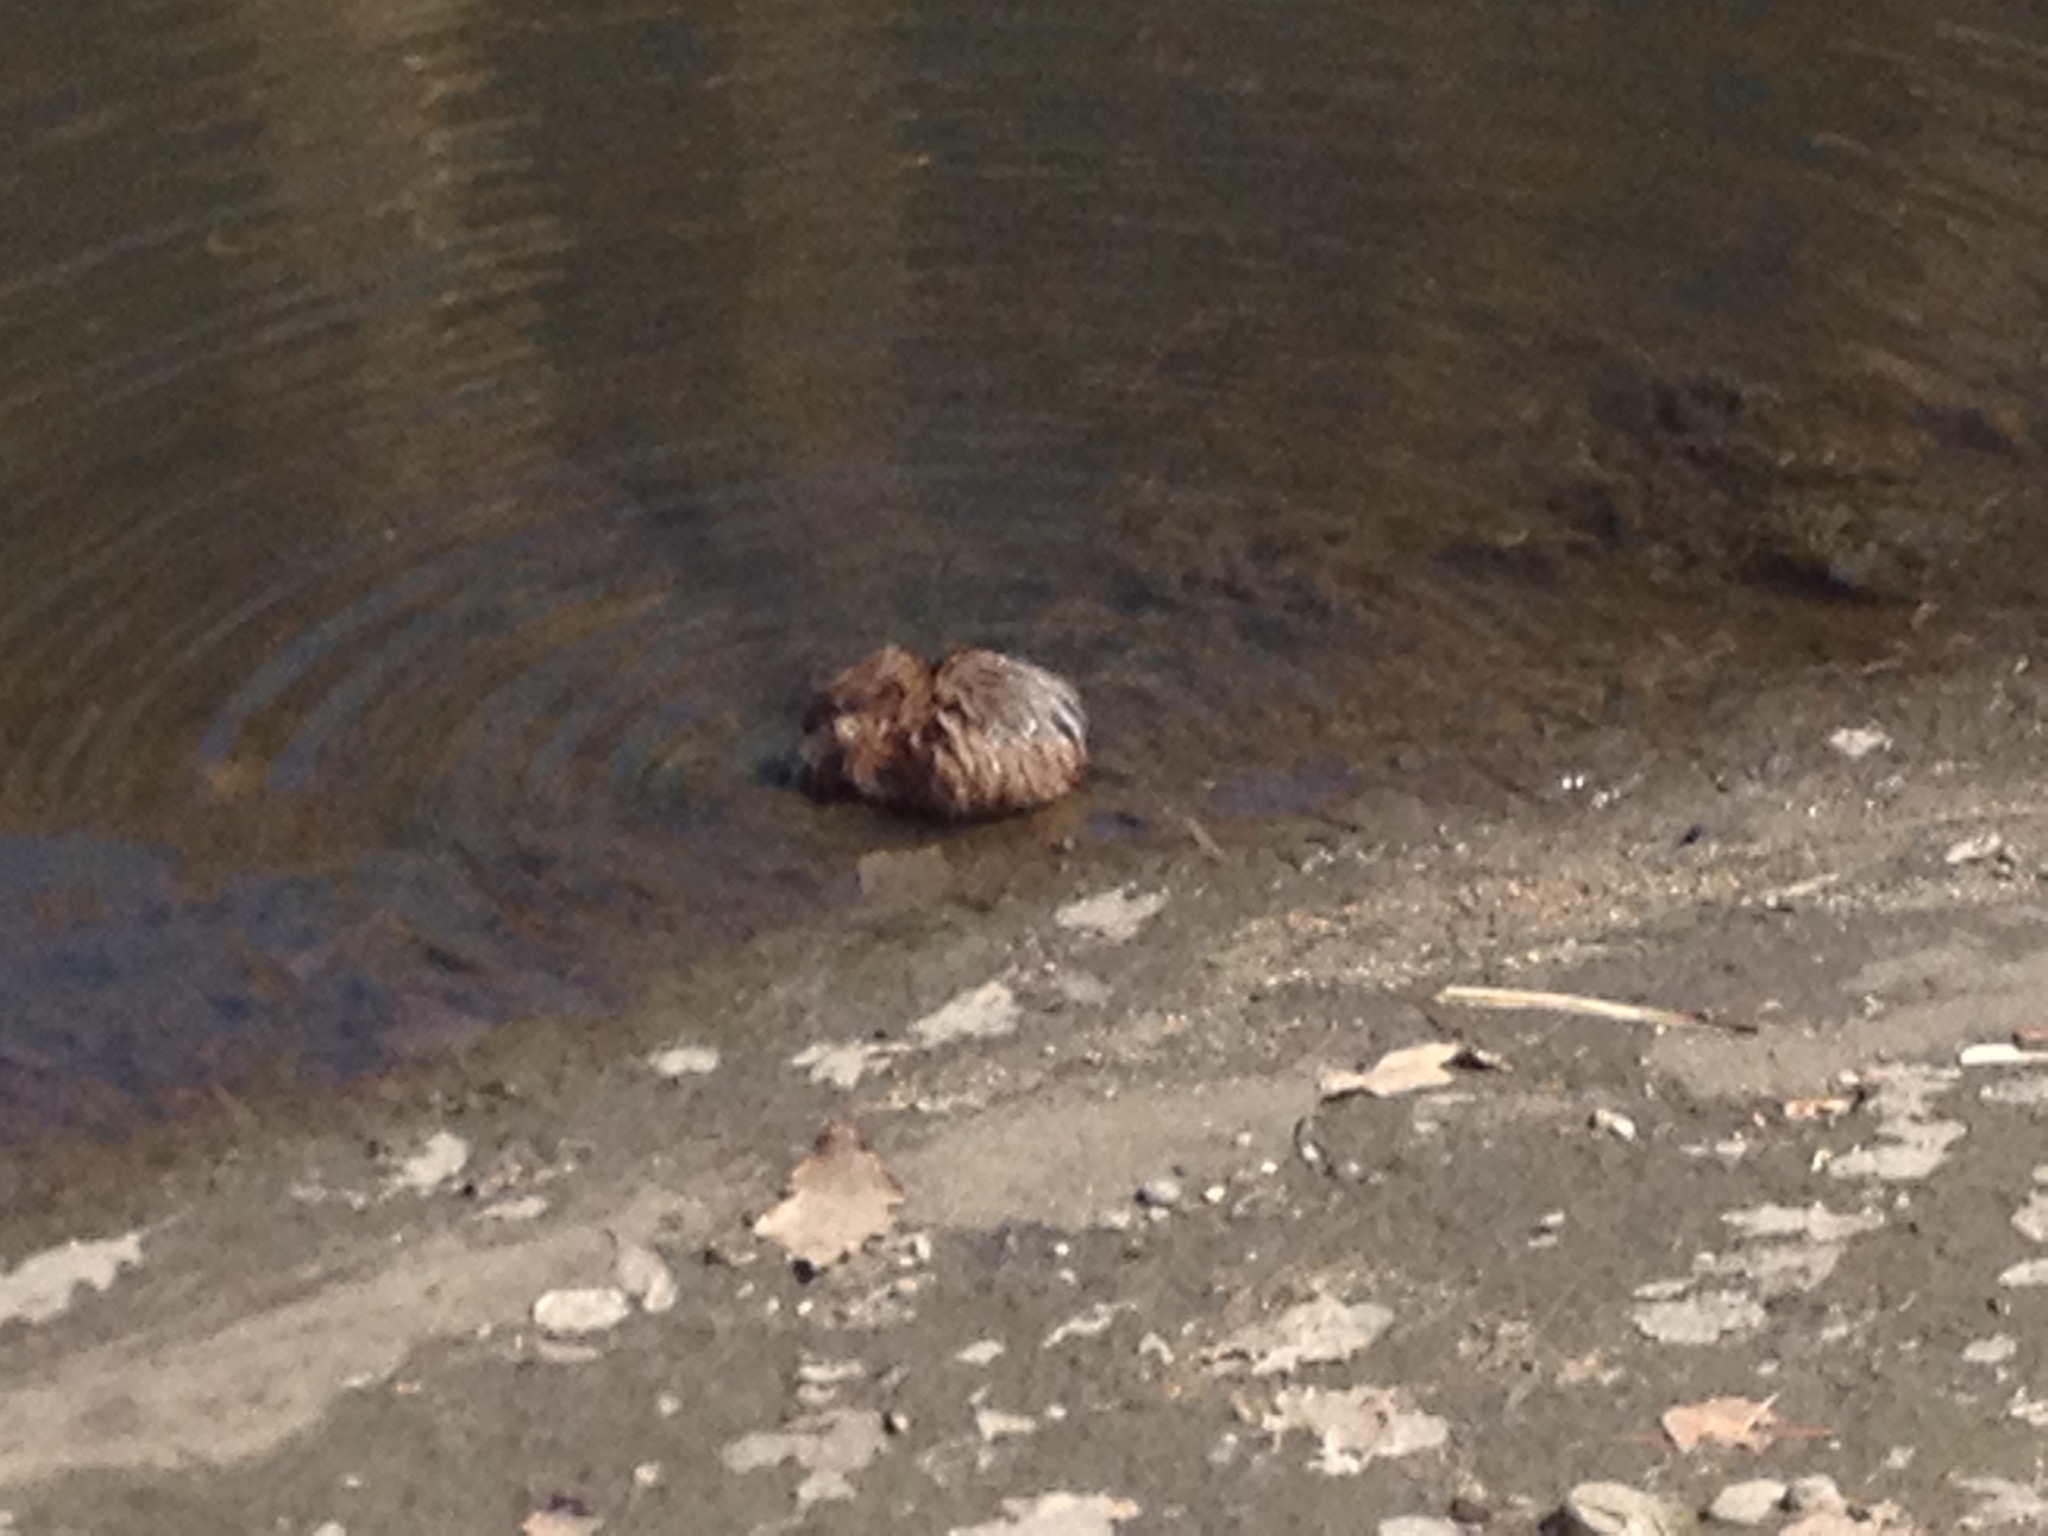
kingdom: Animalia
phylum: Chordata
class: Mammalia
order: Rodentia
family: Cricetidae
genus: Ondatra
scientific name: Ondatra zibethicus
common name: Muskrat
